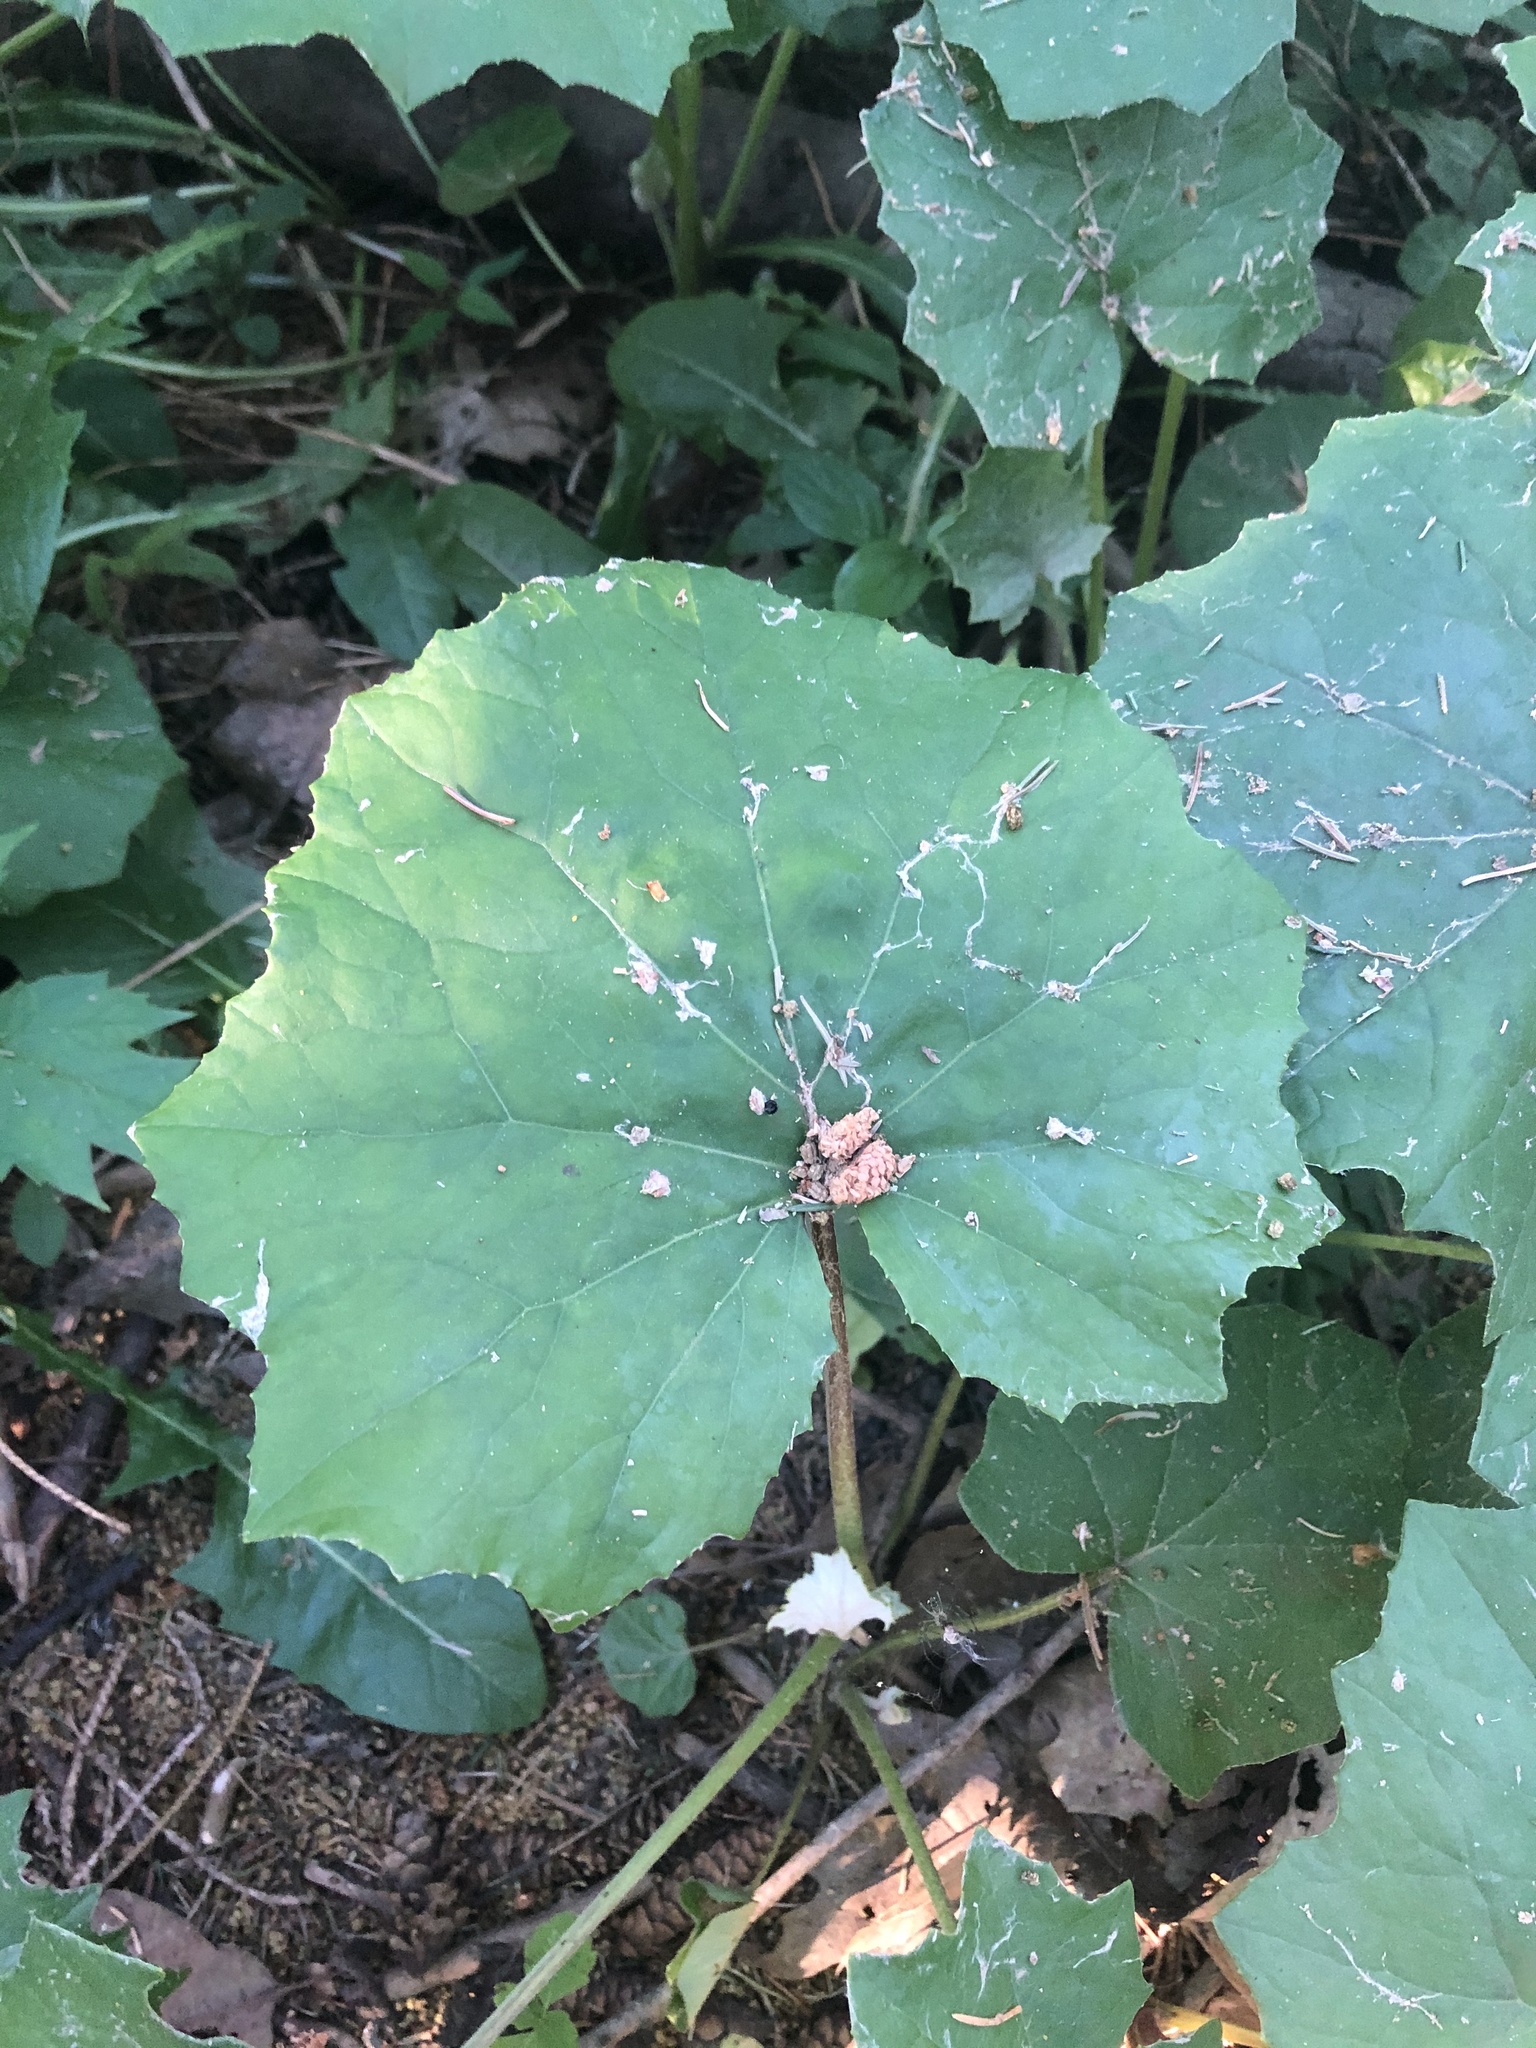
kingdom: Plantae
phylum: Tracheophyta
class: Magnoliopsida
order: Asterales
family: Asteraceae
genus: Tussilago
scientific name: Tussilago farfara
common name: Coltsfoot
